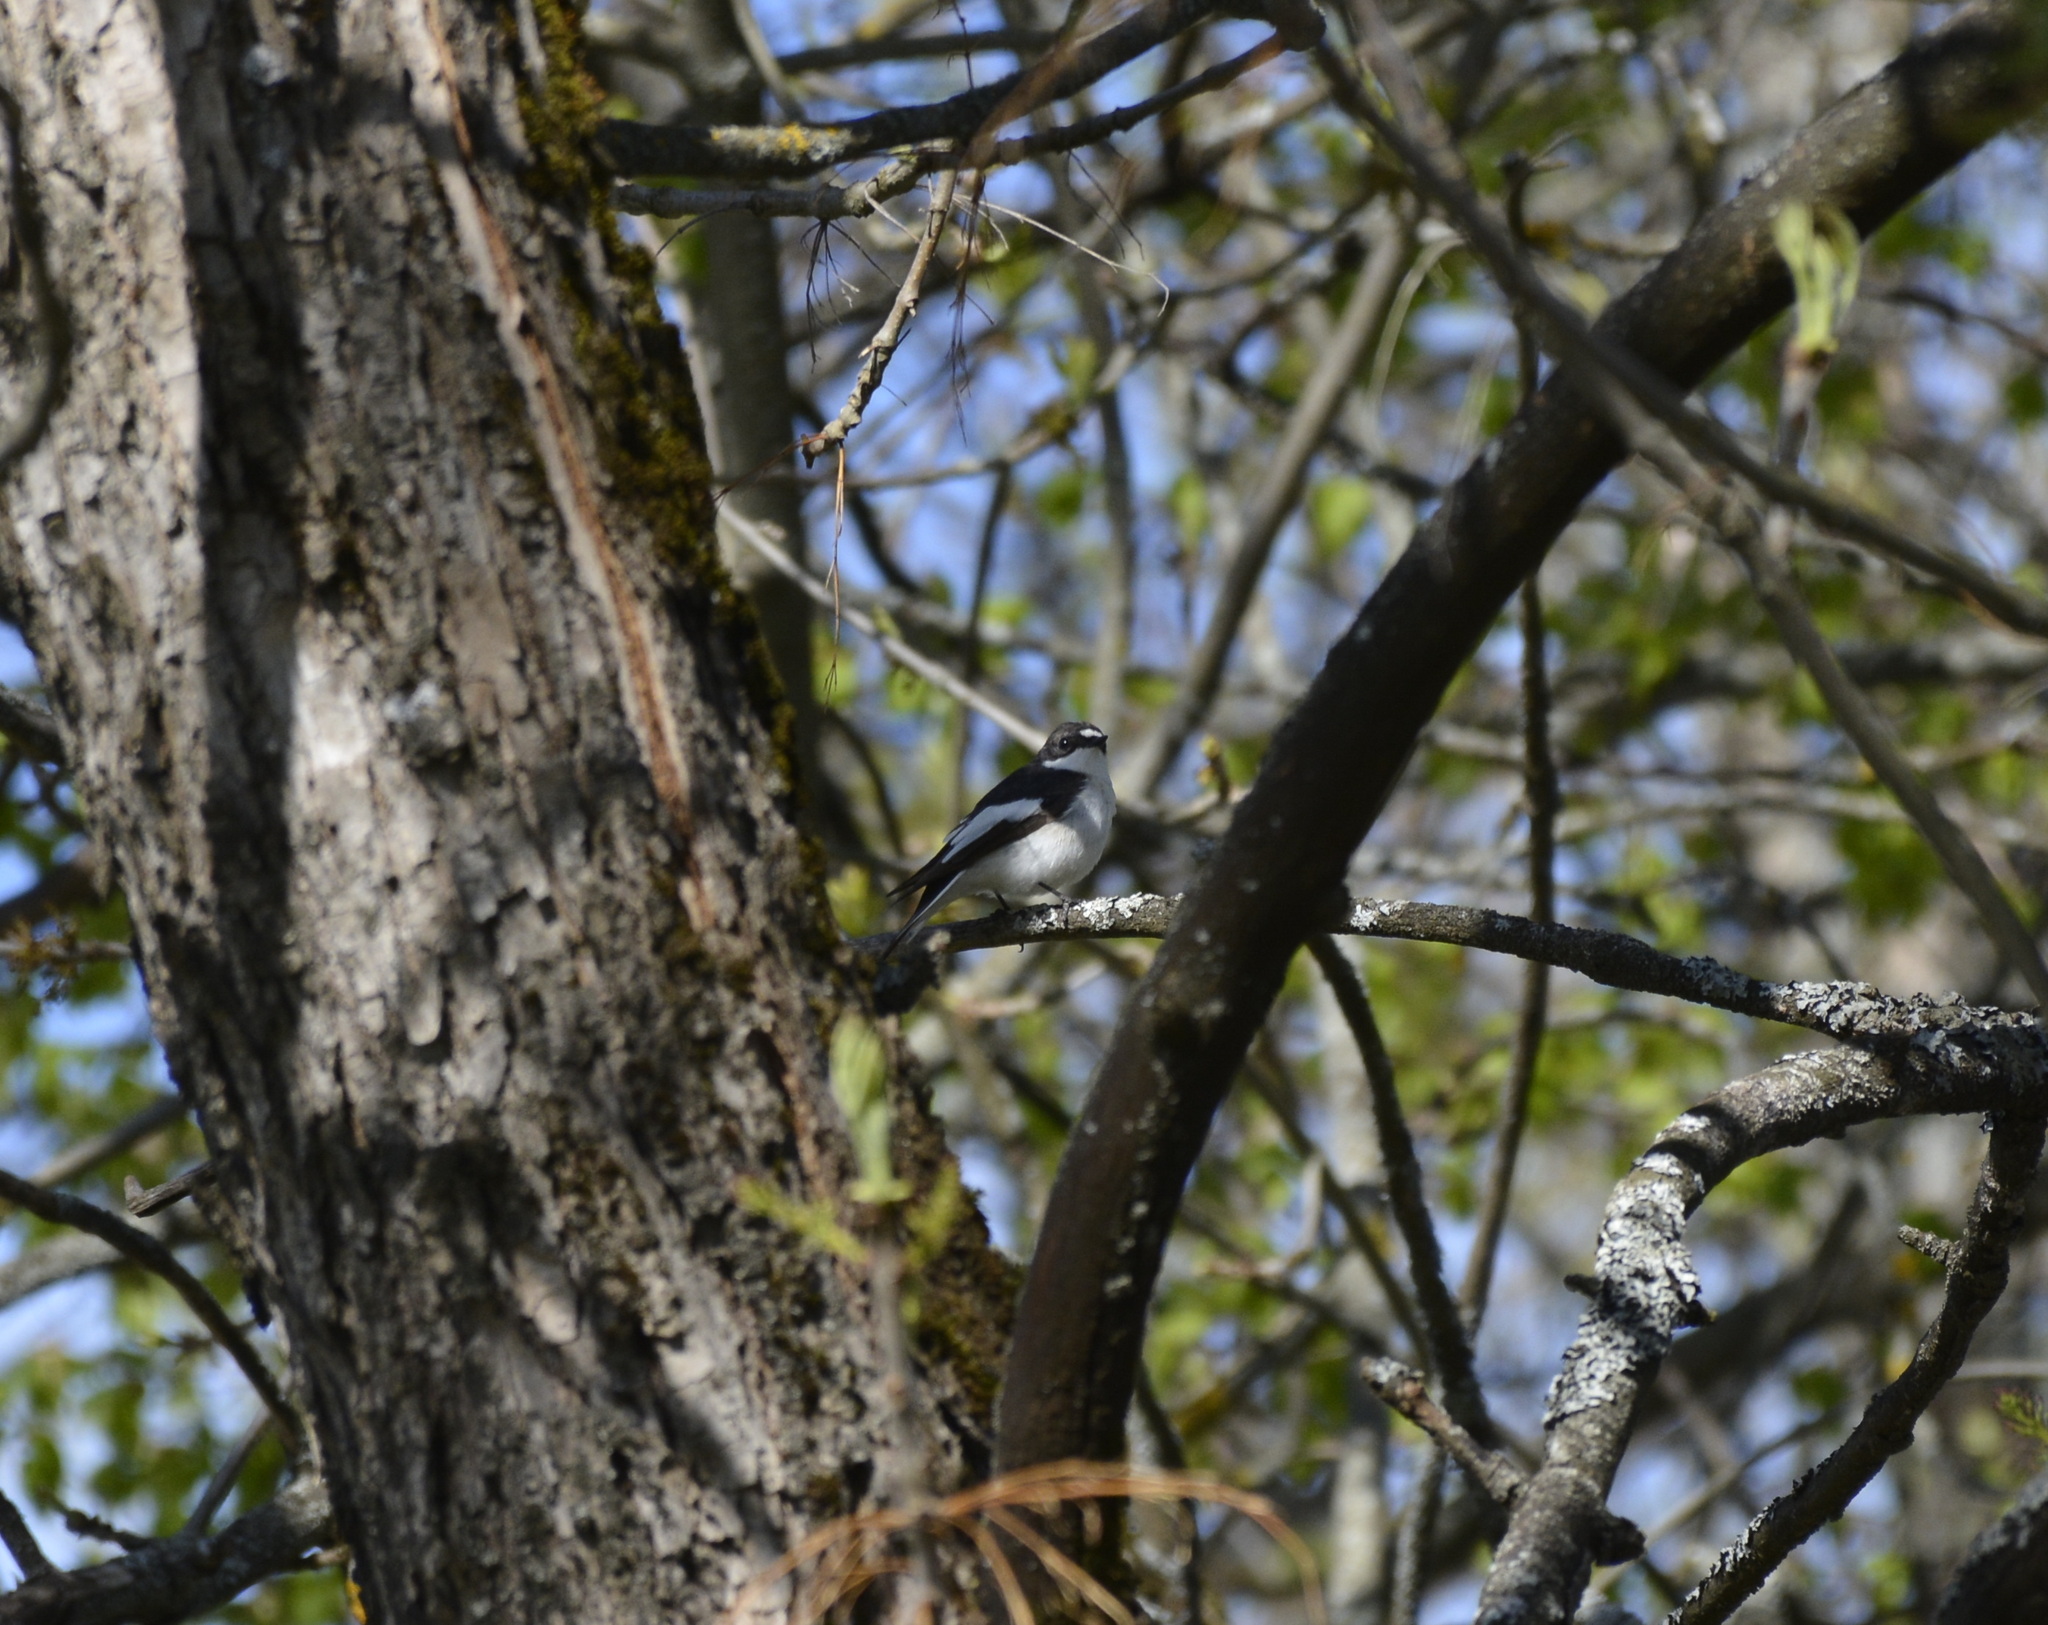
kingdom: Animalia
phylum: Chordata
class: Aves
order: Passeriformes
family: Muscicapidae
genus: Ficedula
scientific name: Ficedula hypoleuca
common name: European pied flycatcher
